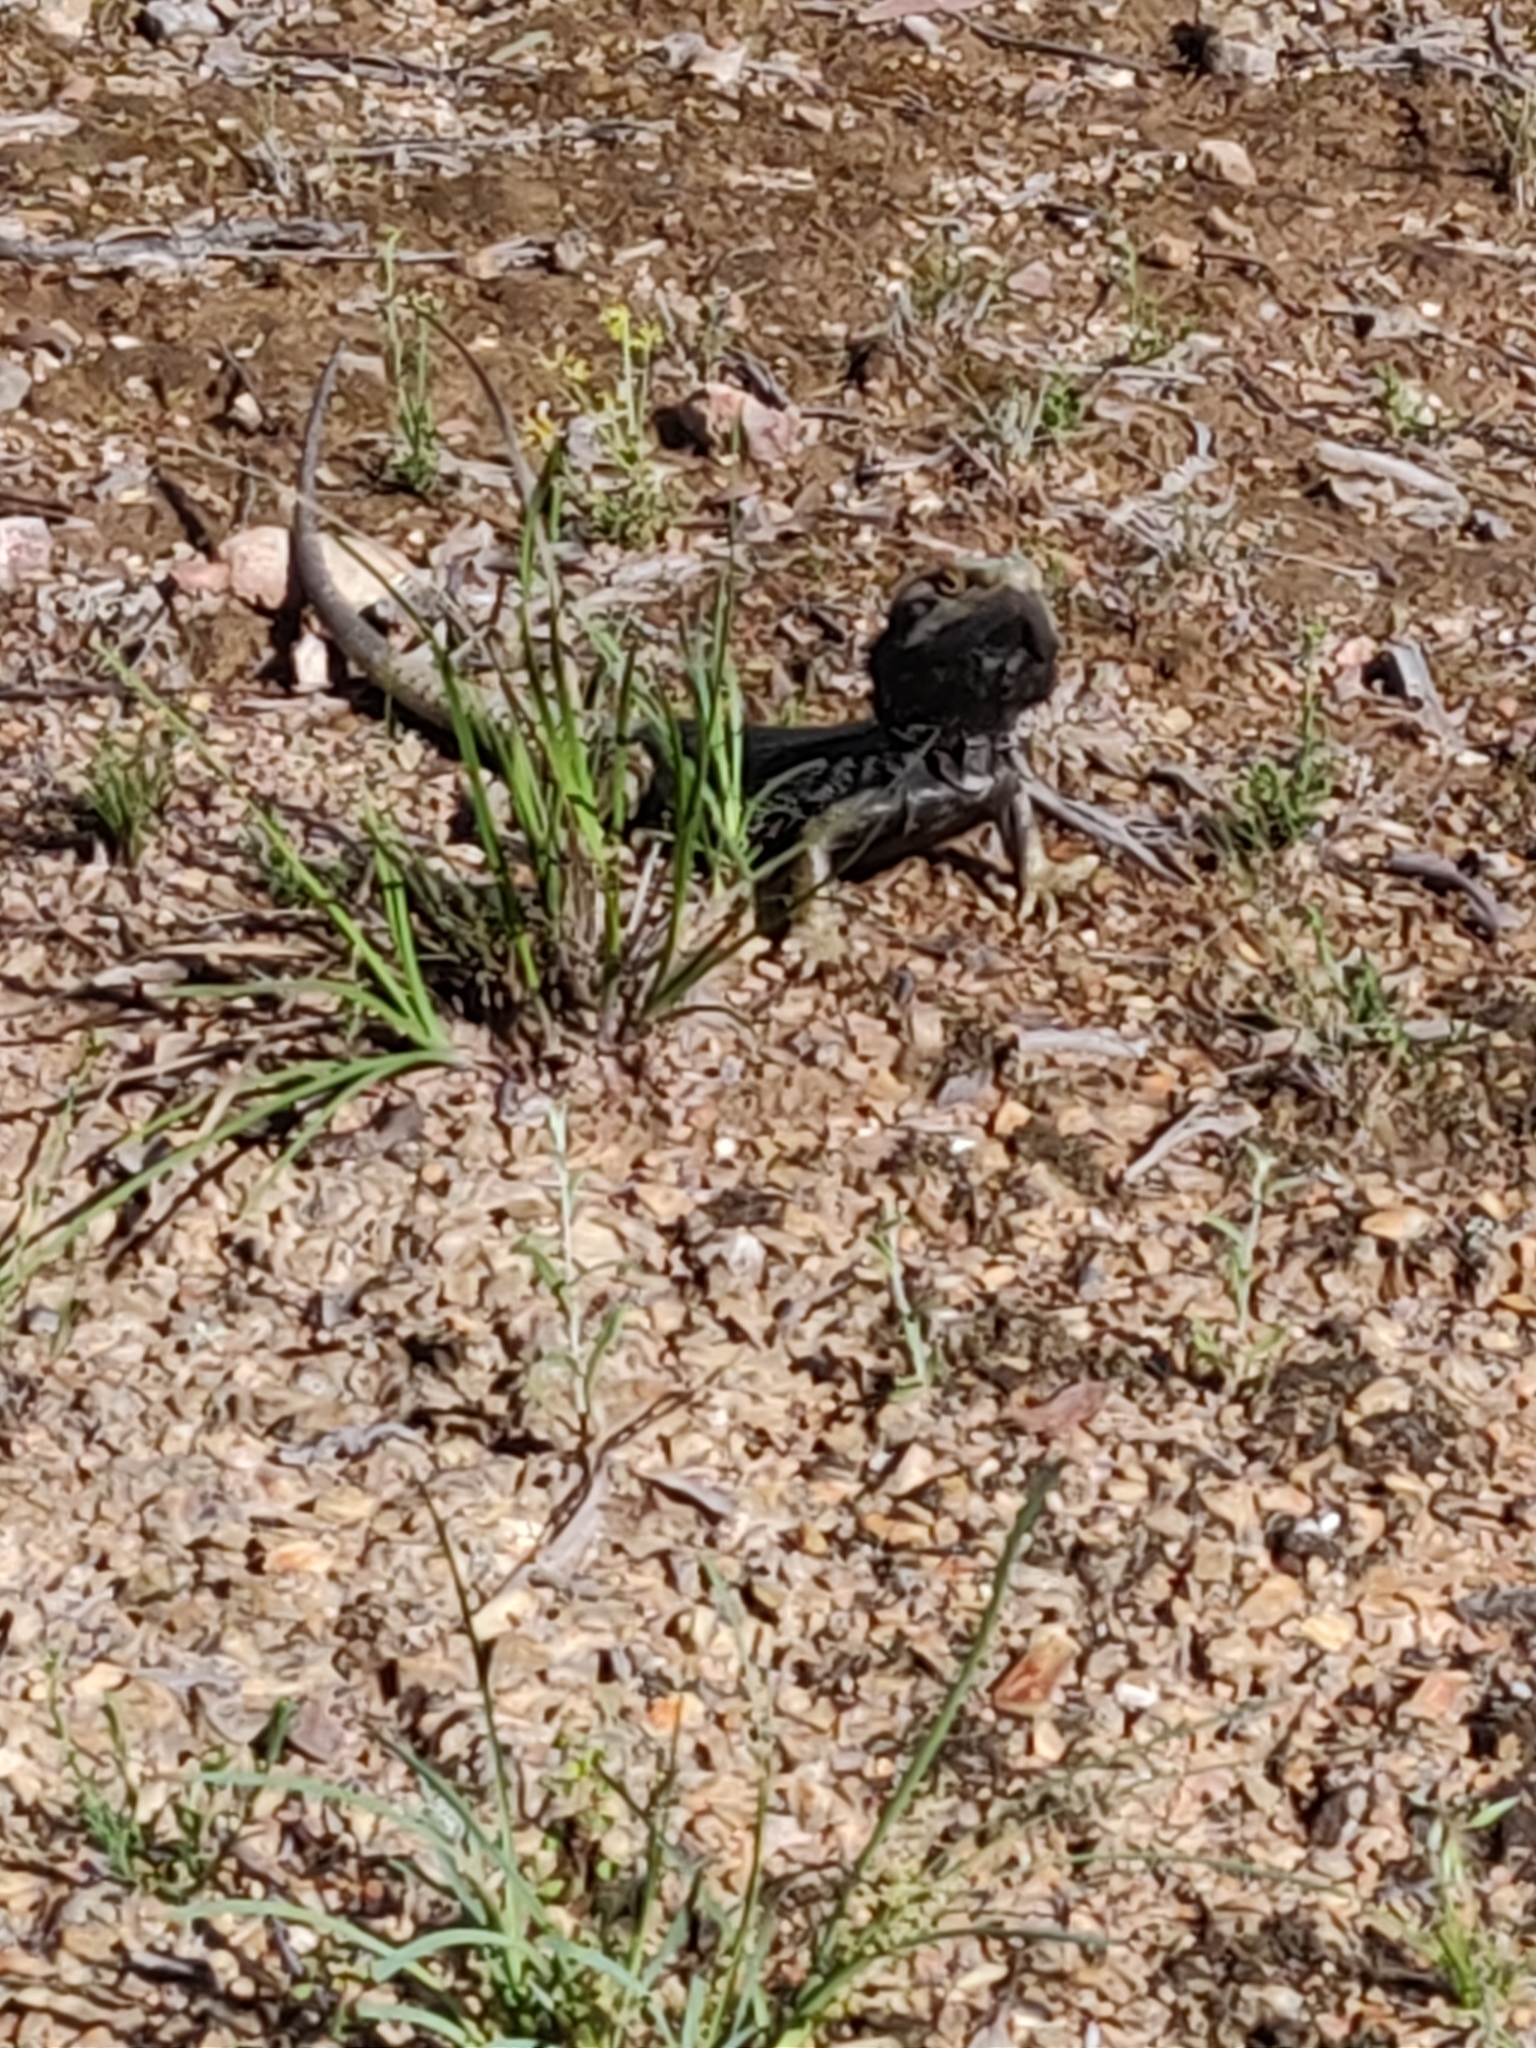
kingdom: Animalia
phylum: Chordata
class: Squamata
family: Agamidae
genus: Pogona
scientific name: Pogona barbata
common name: Bearded dragon
